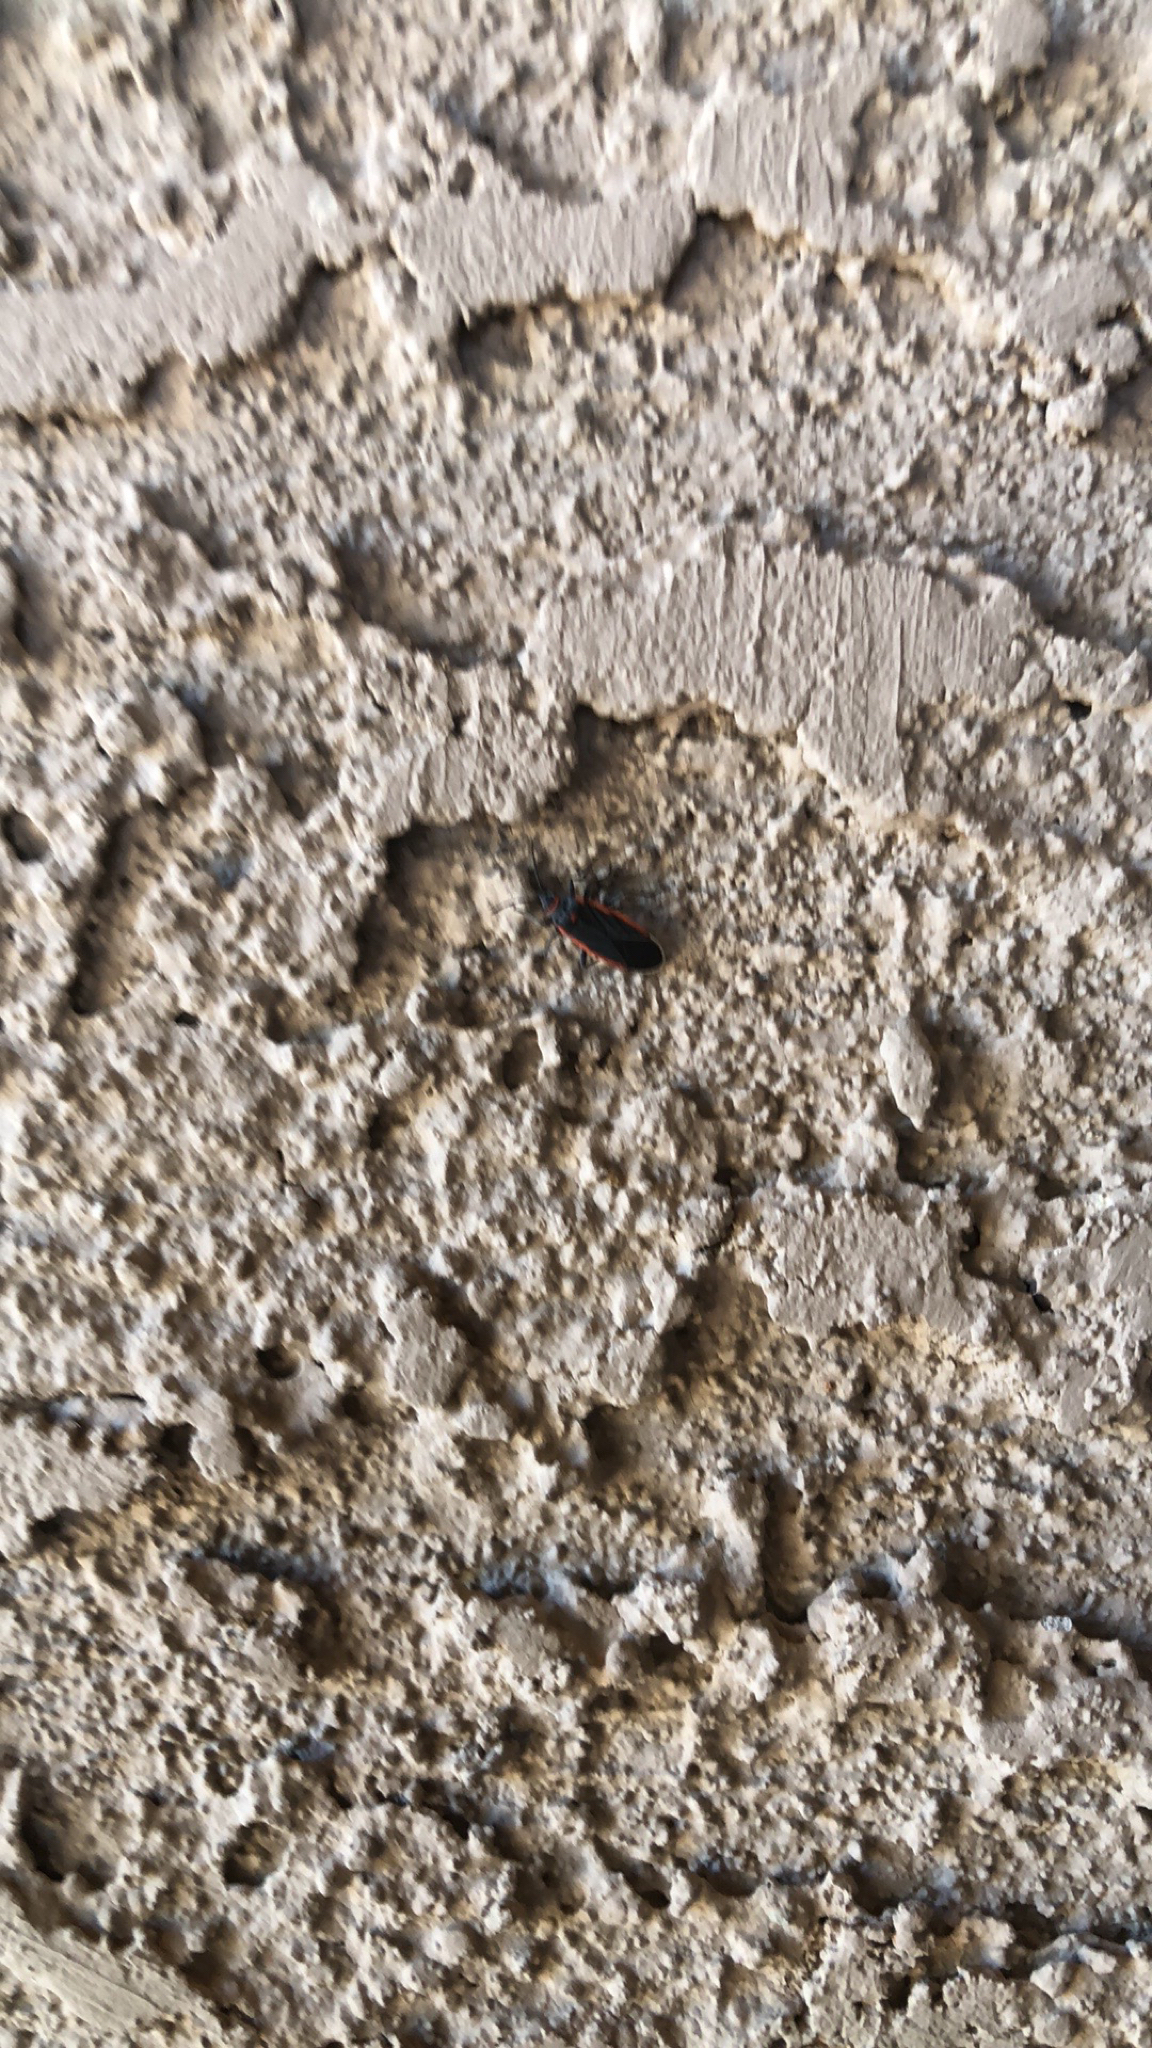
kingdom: Animalia
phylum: Arthropoda
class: Insecta
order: Hemiptera
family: Lygaeidae
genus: Melacoryphus
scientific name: Melacoryphus lateralis
